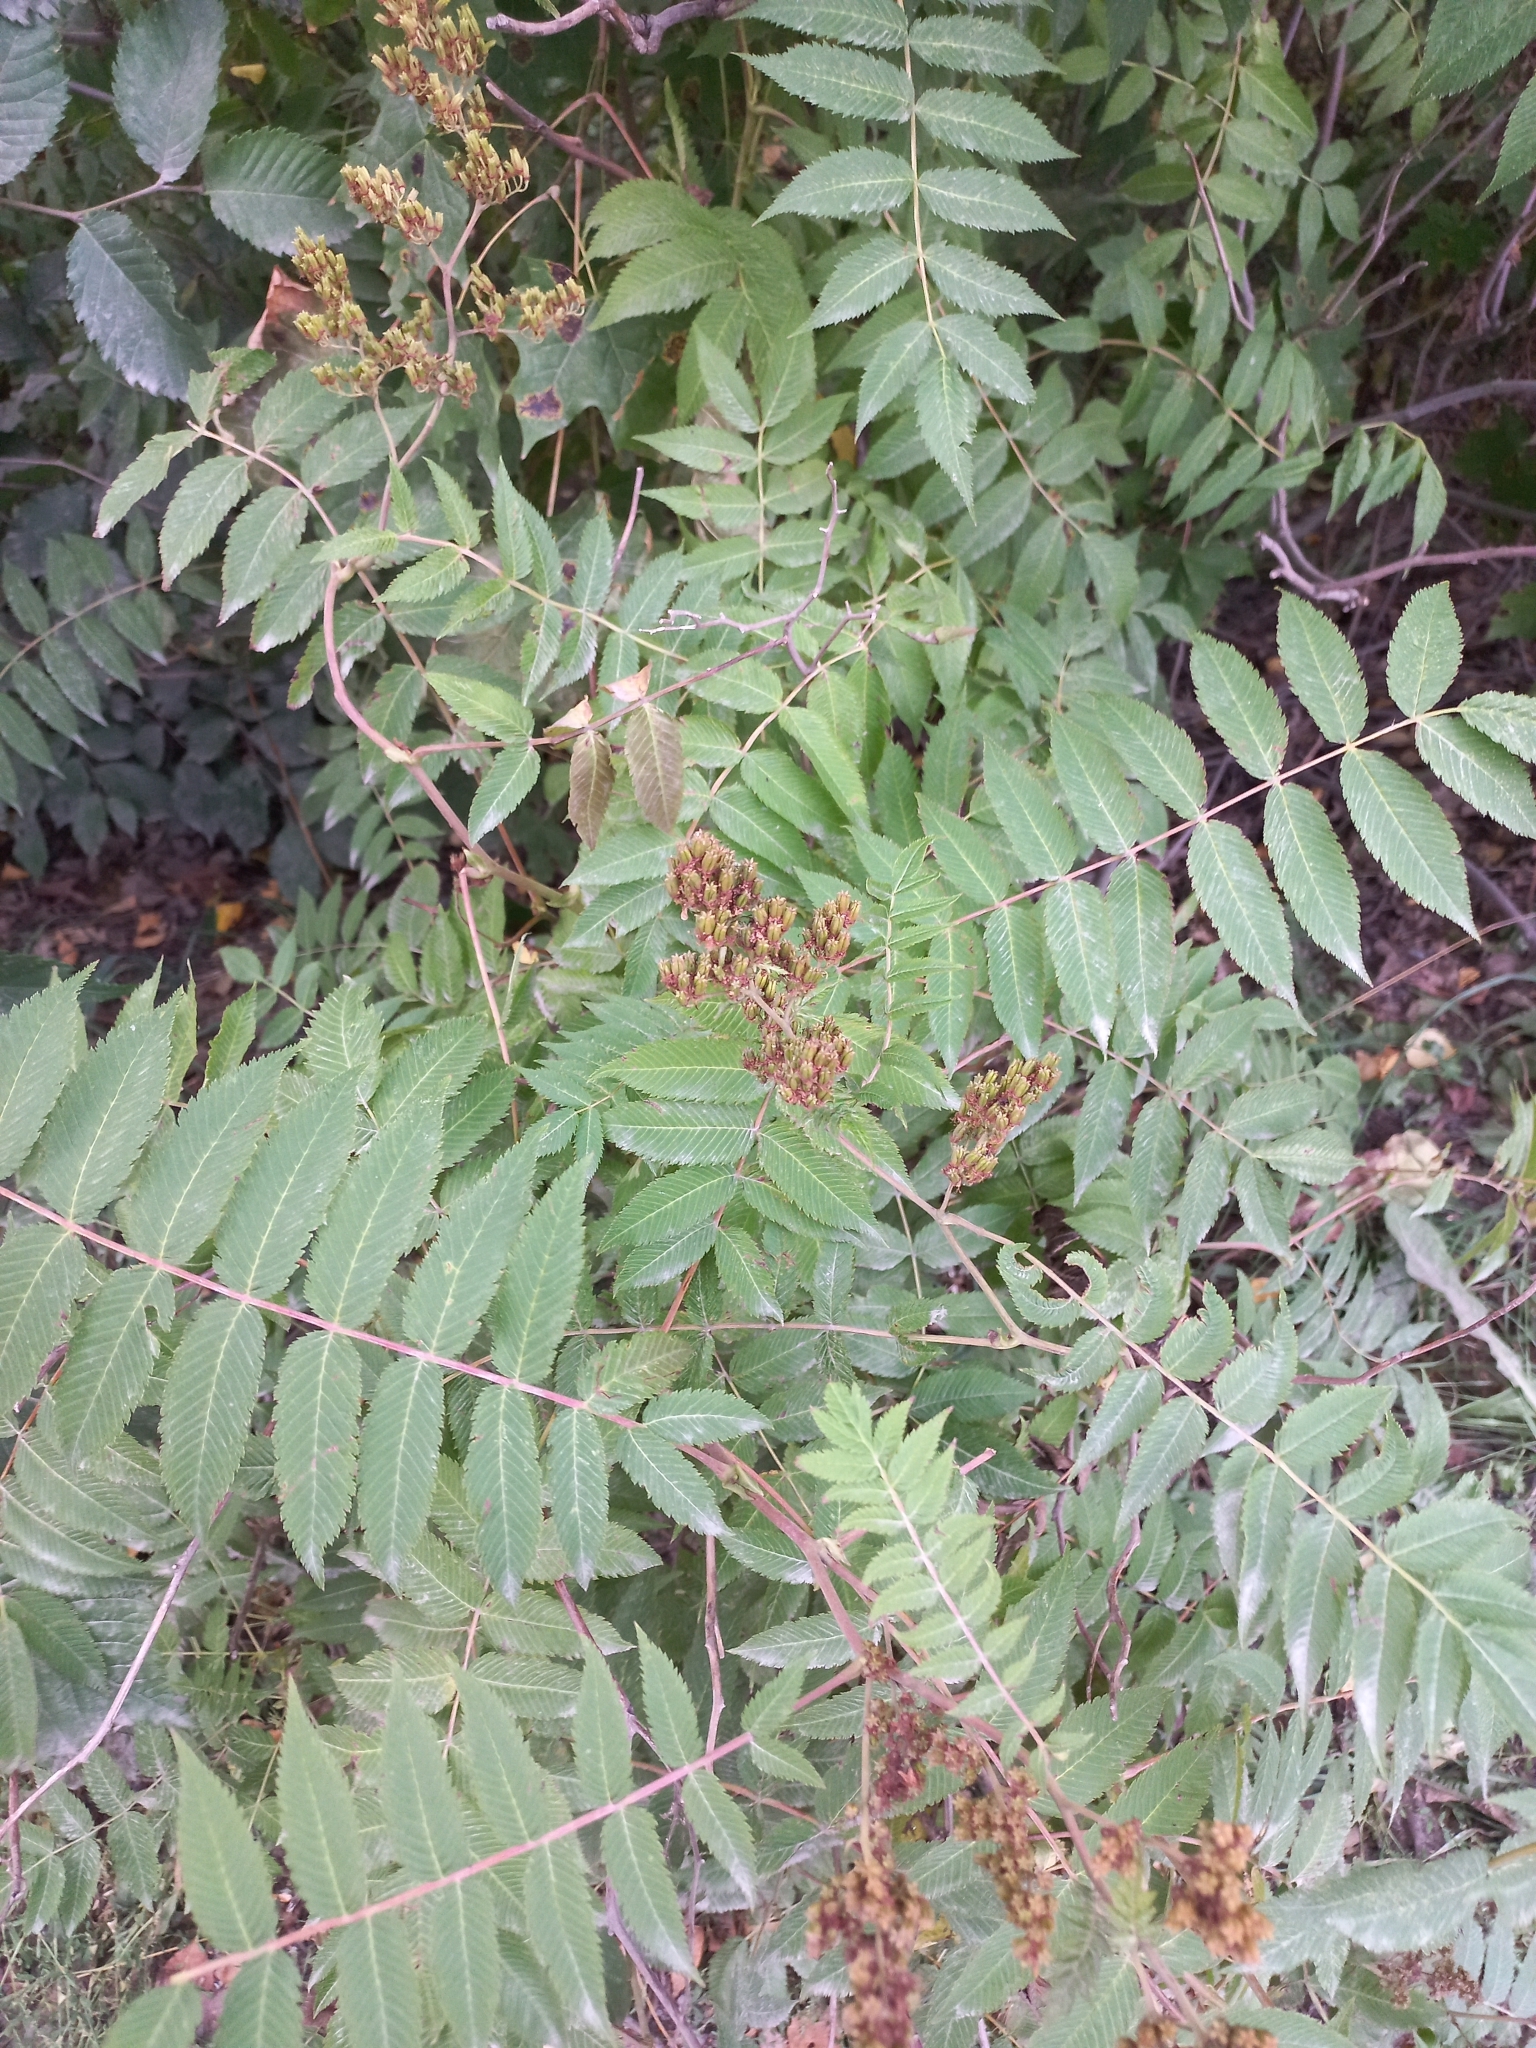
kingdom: Plantae
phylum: Tracheophyta
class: Magnoliopsida
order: Rosales
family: Rosaceae
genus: Sorbaria
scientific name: Sorbaria sorbifolia
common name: False spiraea
